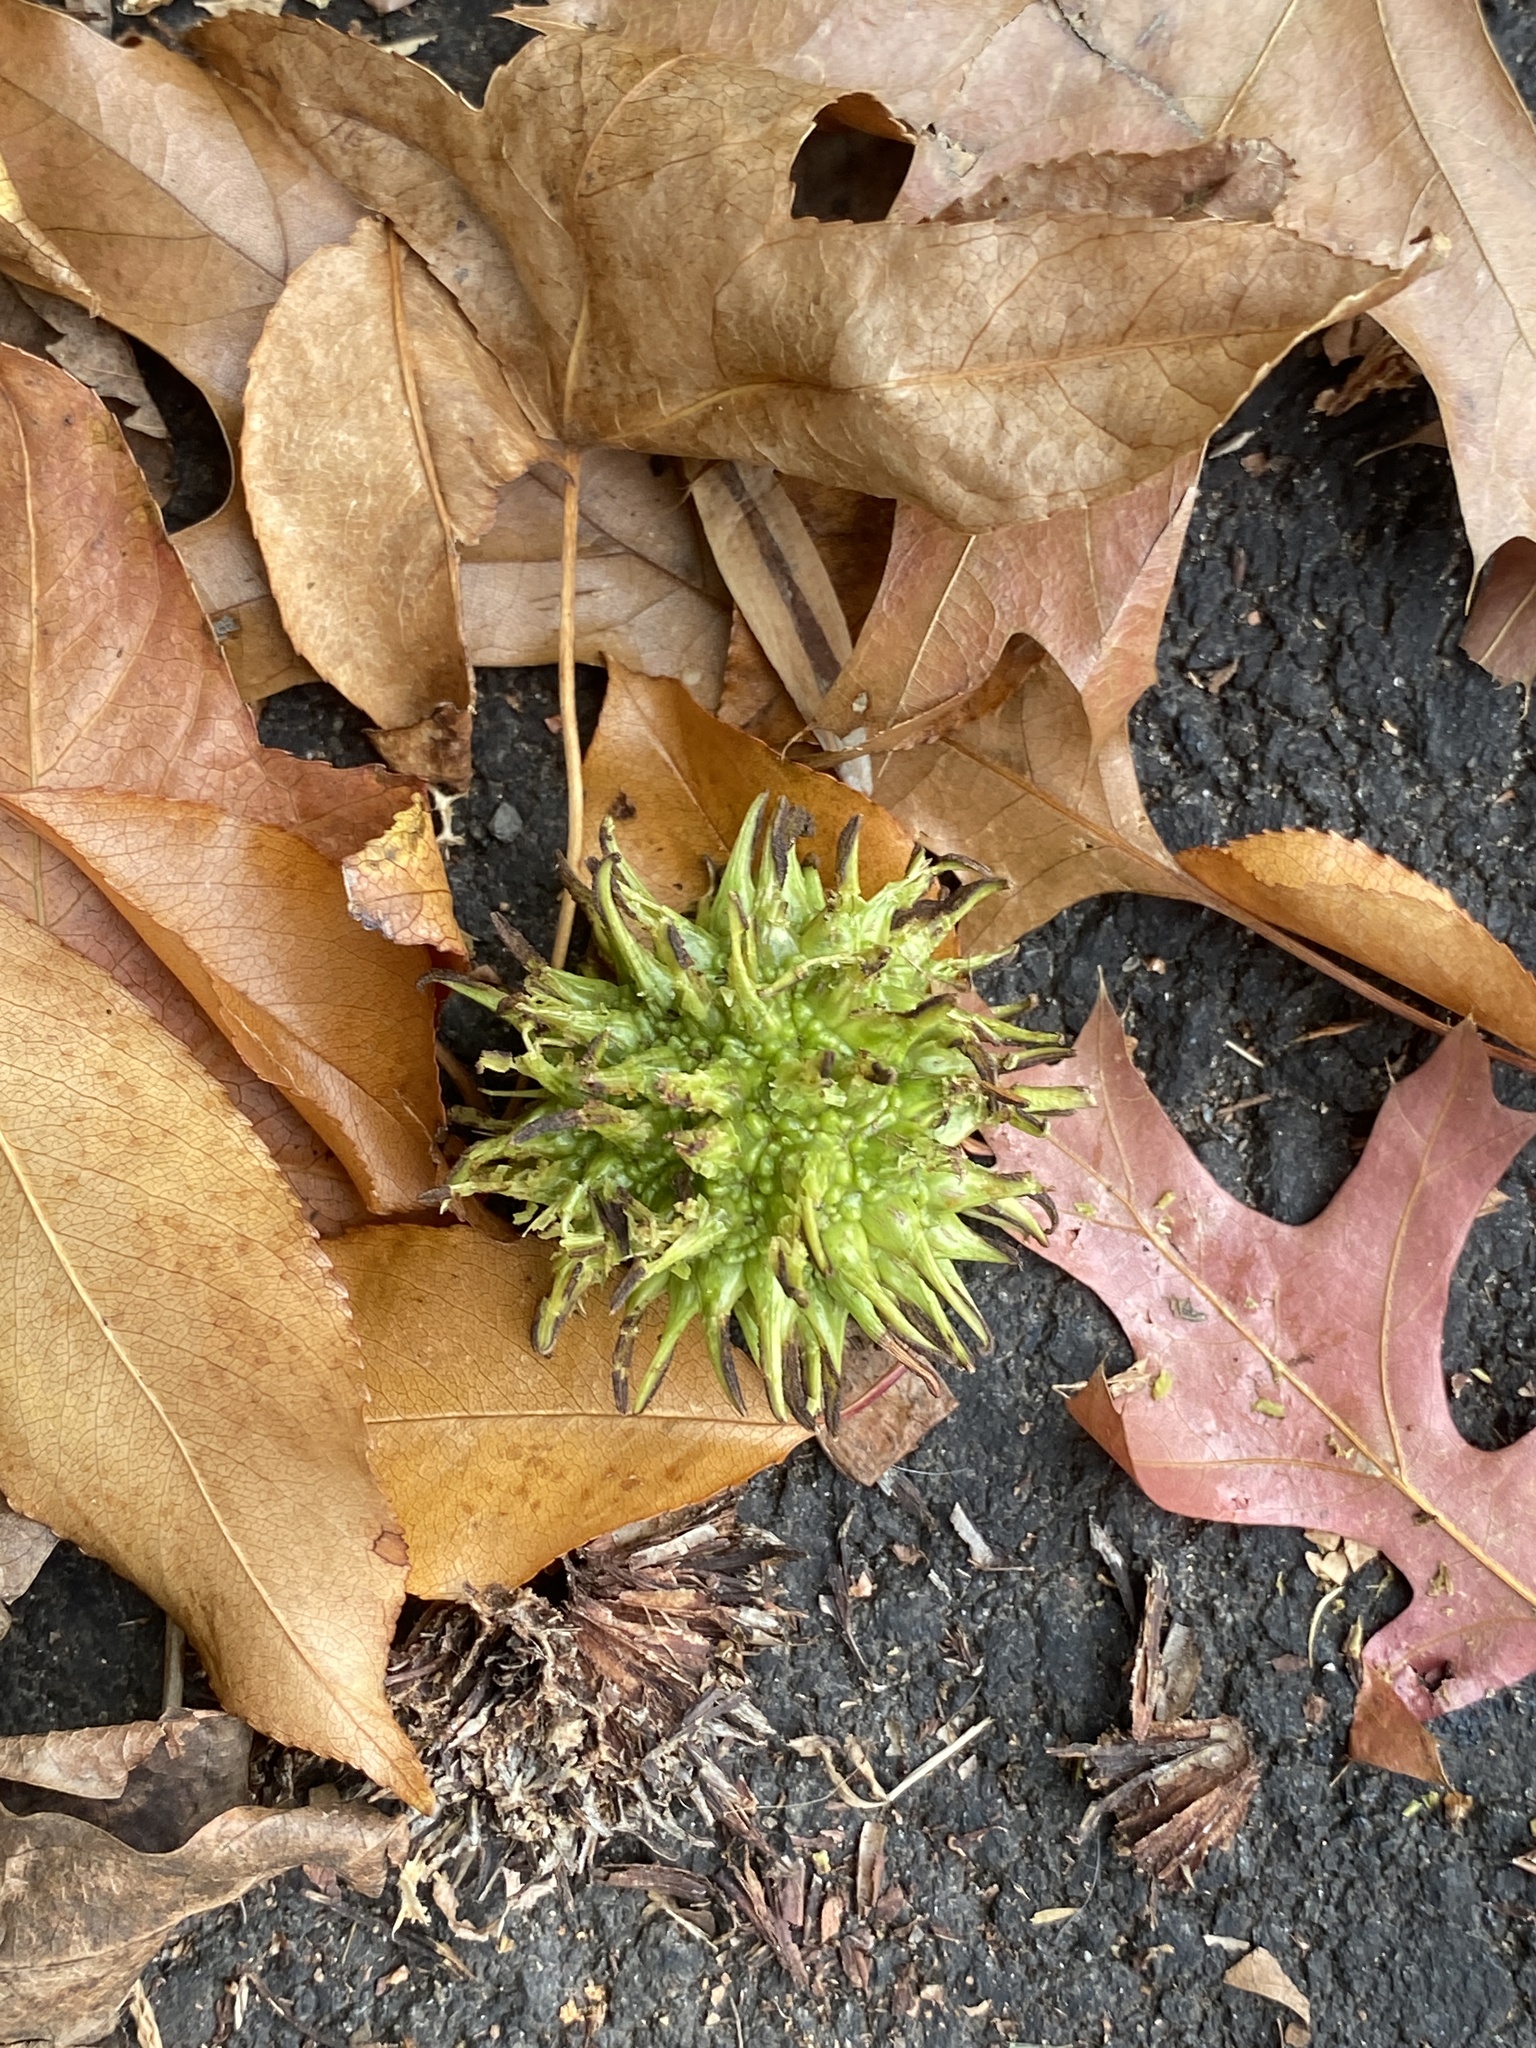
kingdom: Plantae
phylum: Tracheophyta
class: Magnoliopsida
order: Saxifragales
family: Altingiaceae
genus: Liquidambar
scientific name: Liquidambar styraciflua
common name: Sweet gum
